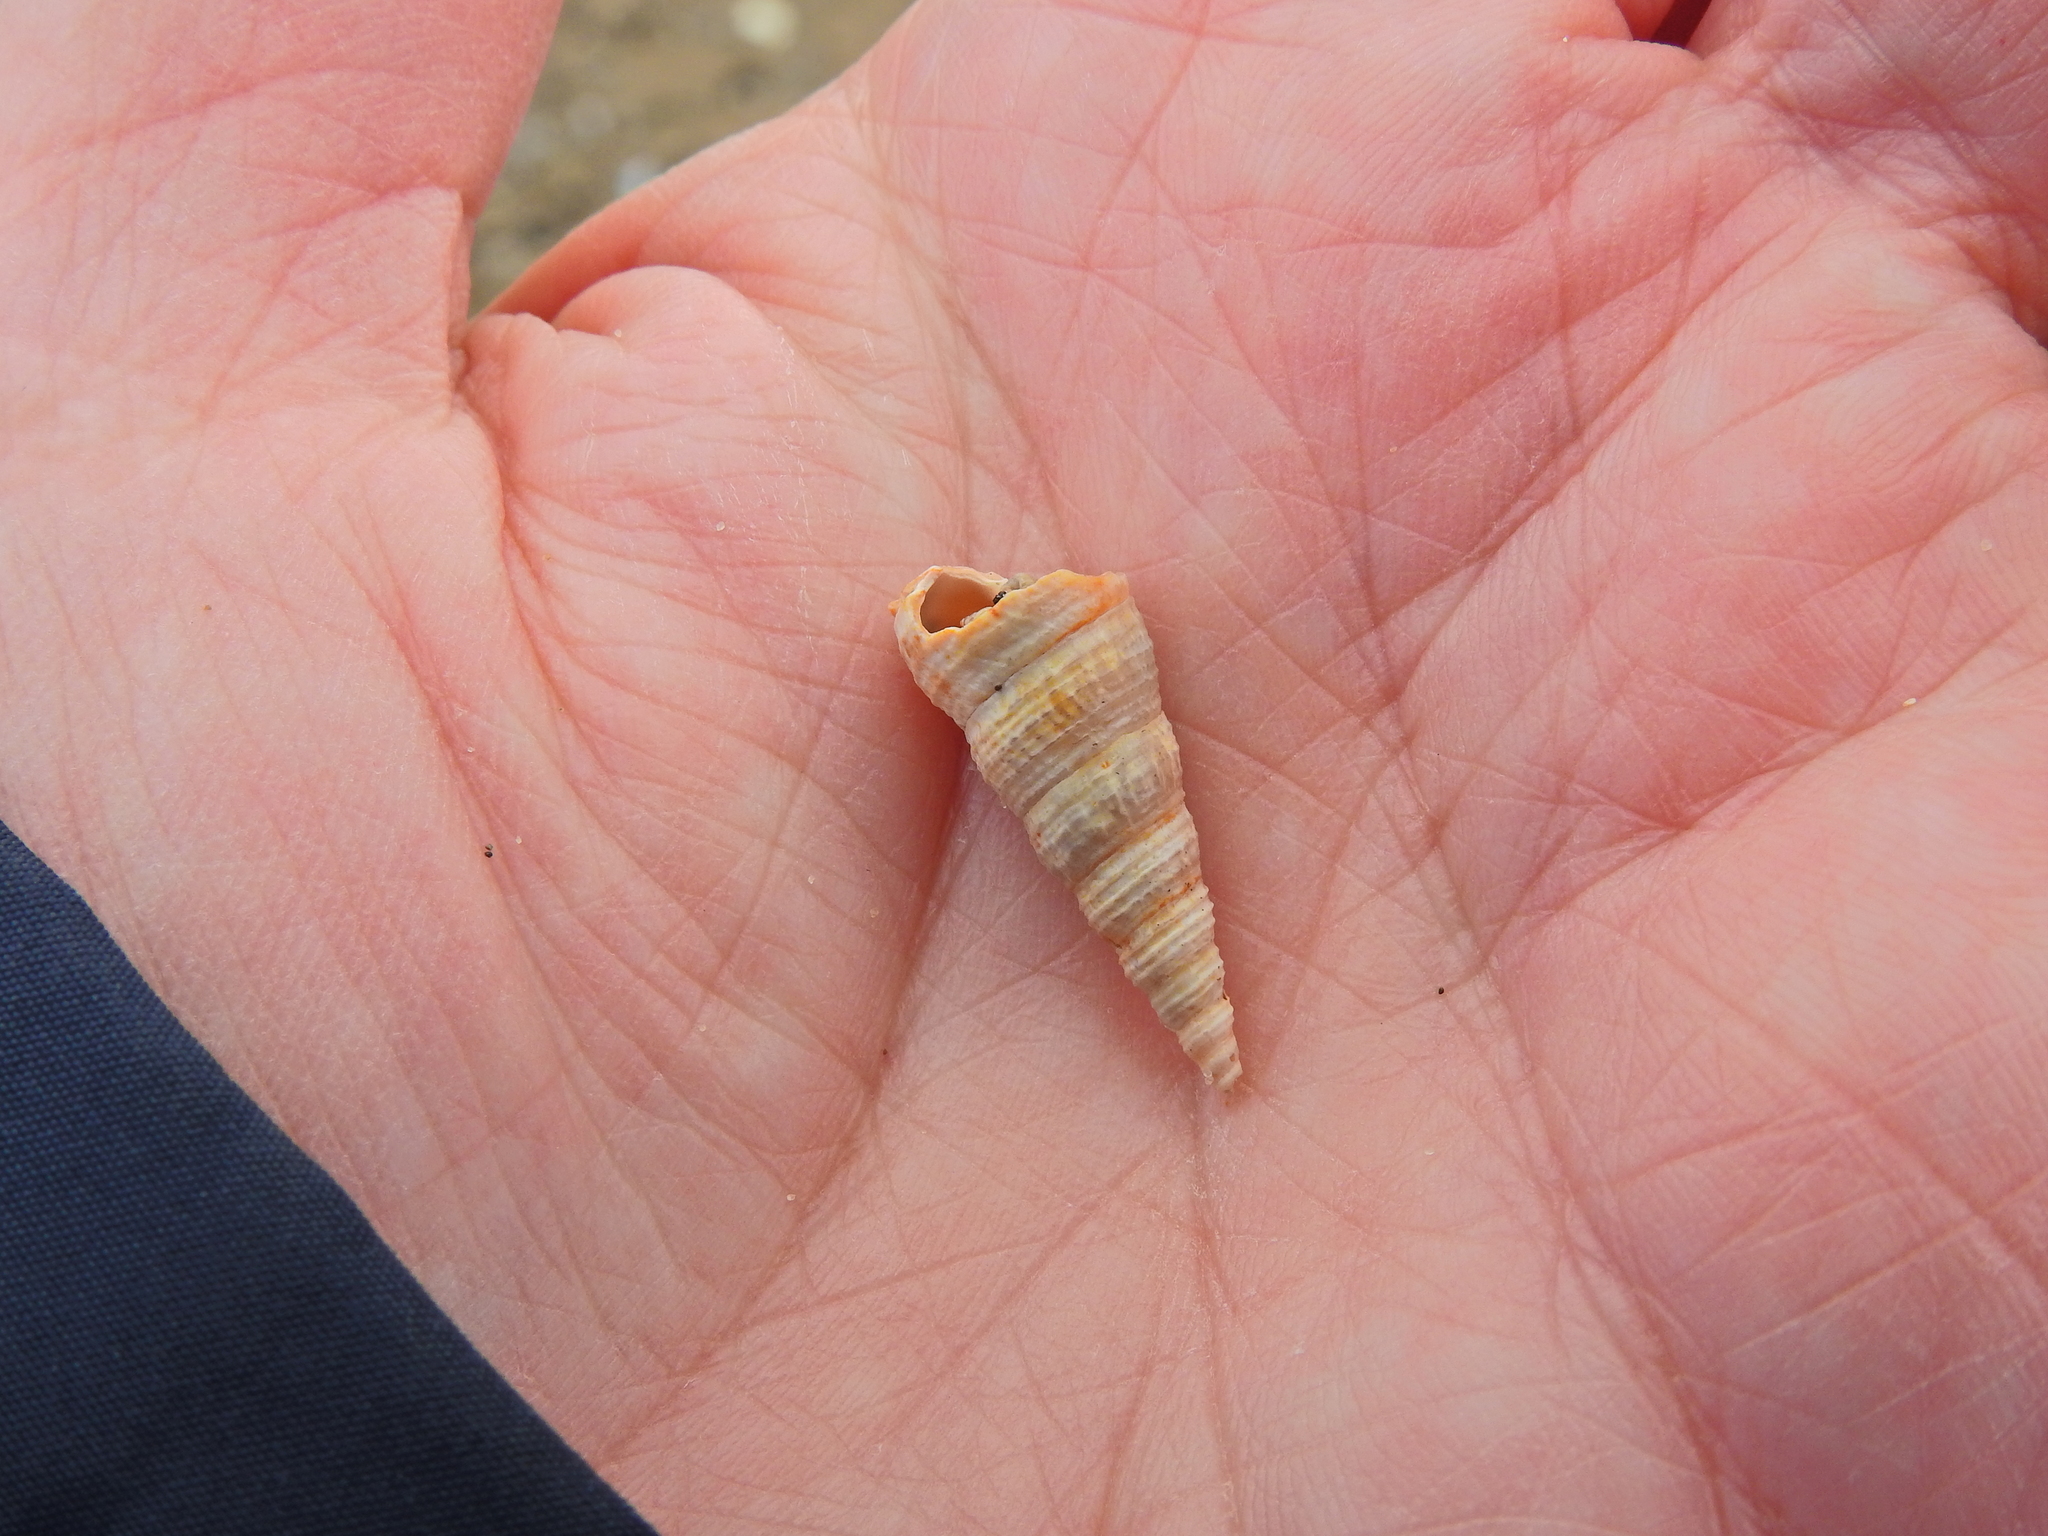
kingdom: Animalia
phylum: Mollusca
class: Gastropoda
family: Turritellidae
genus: Turritellinella
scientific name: Turritellinella tricarinata
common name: Auger shell
